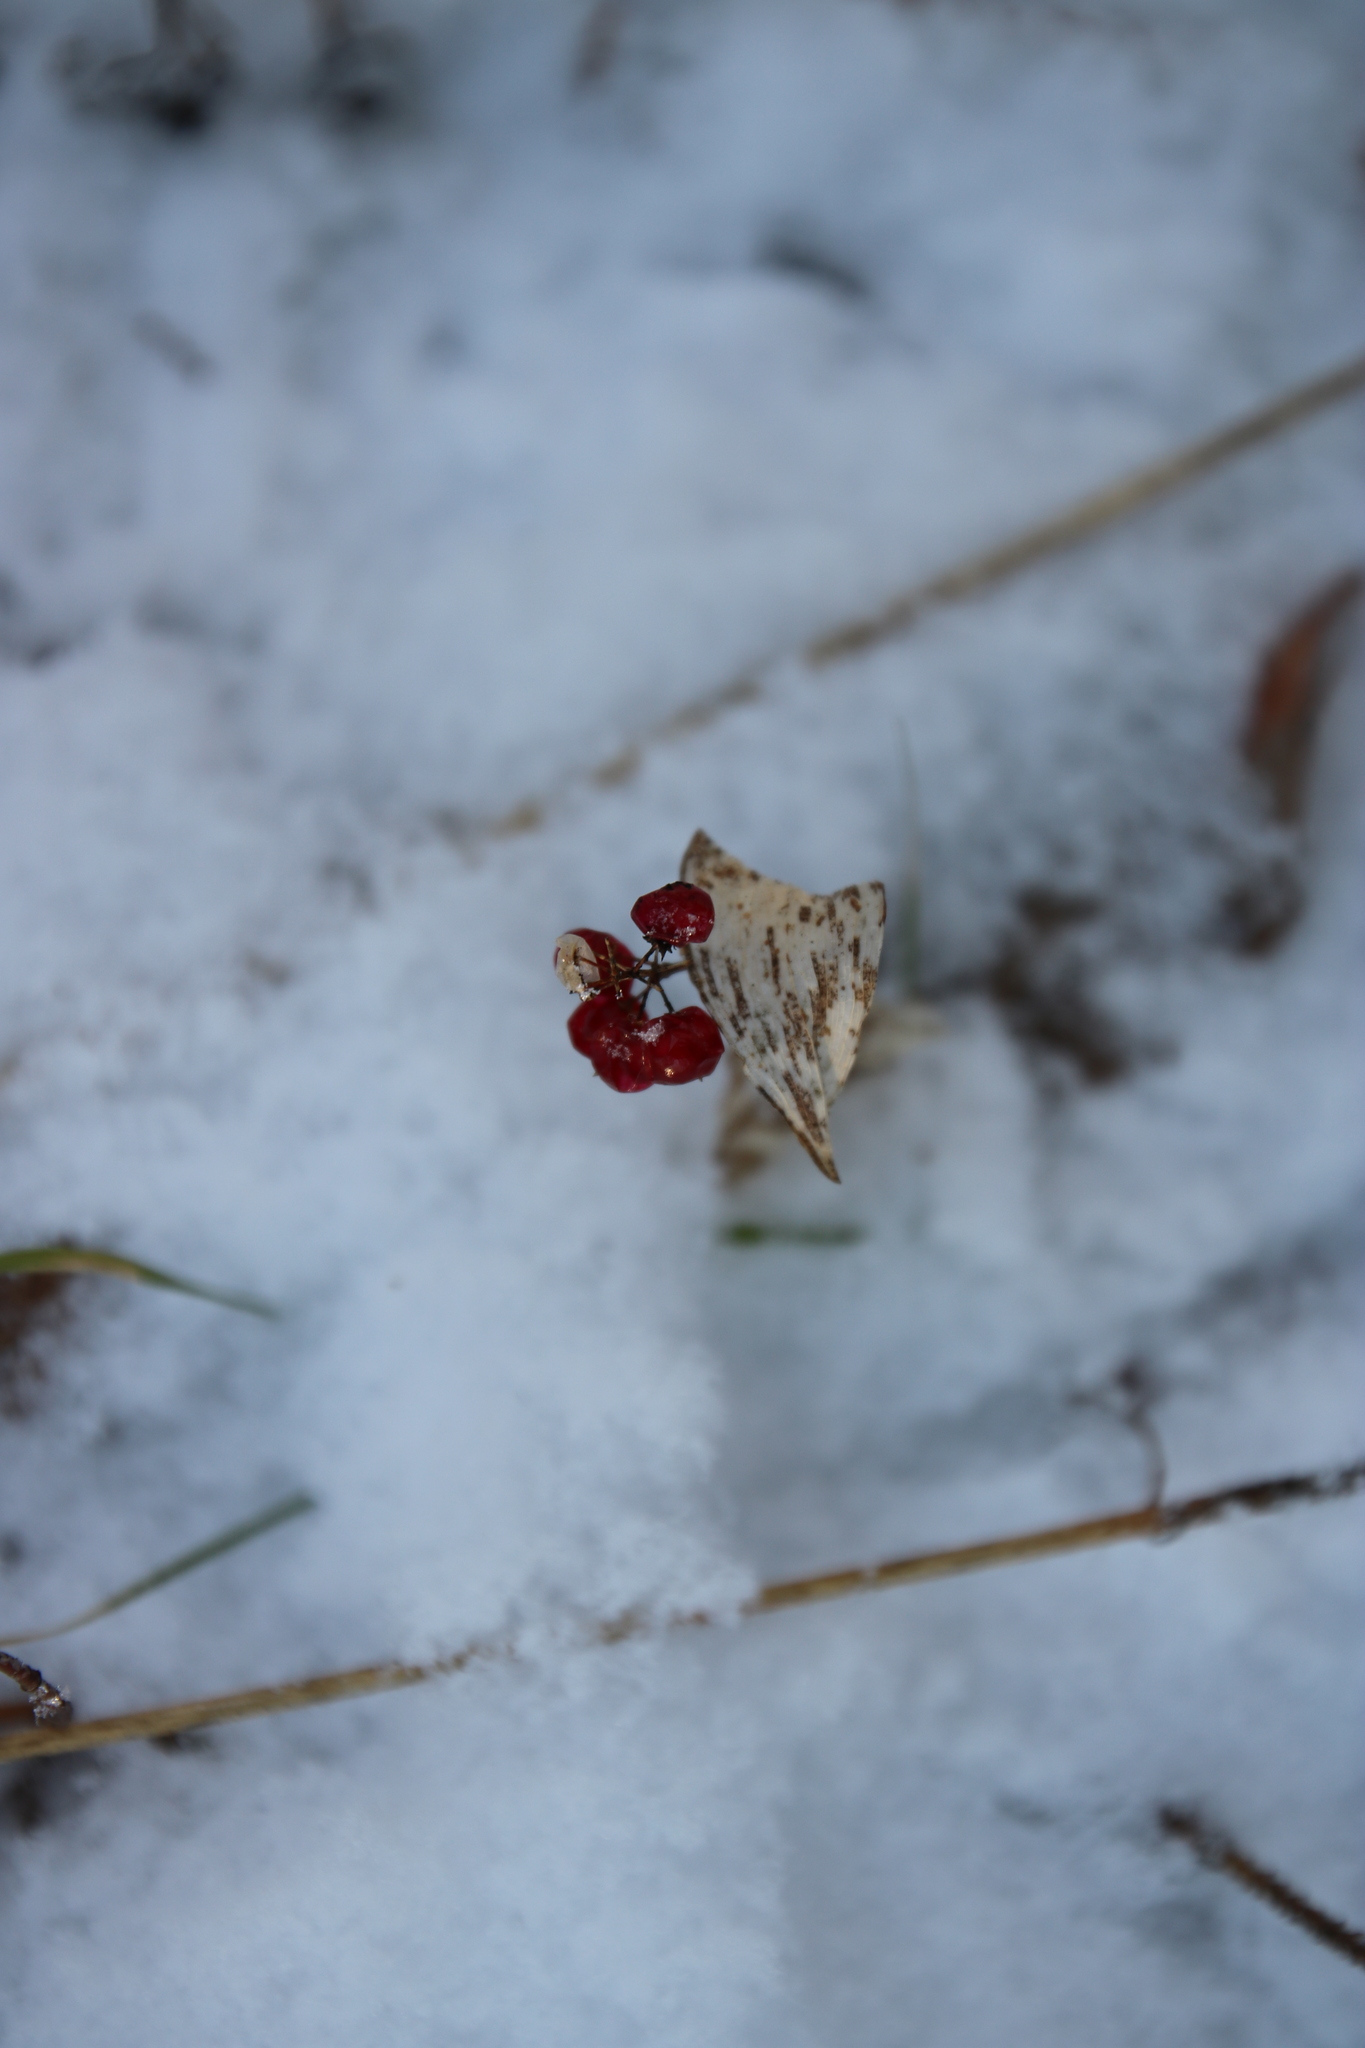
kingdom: Plantae
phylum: Tracheophyta
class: Liliopsida
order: Asparagales
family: Asparagaceae
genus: Maianthemum
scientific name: Maianthemum canadense
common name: False lily-of-the-valley
